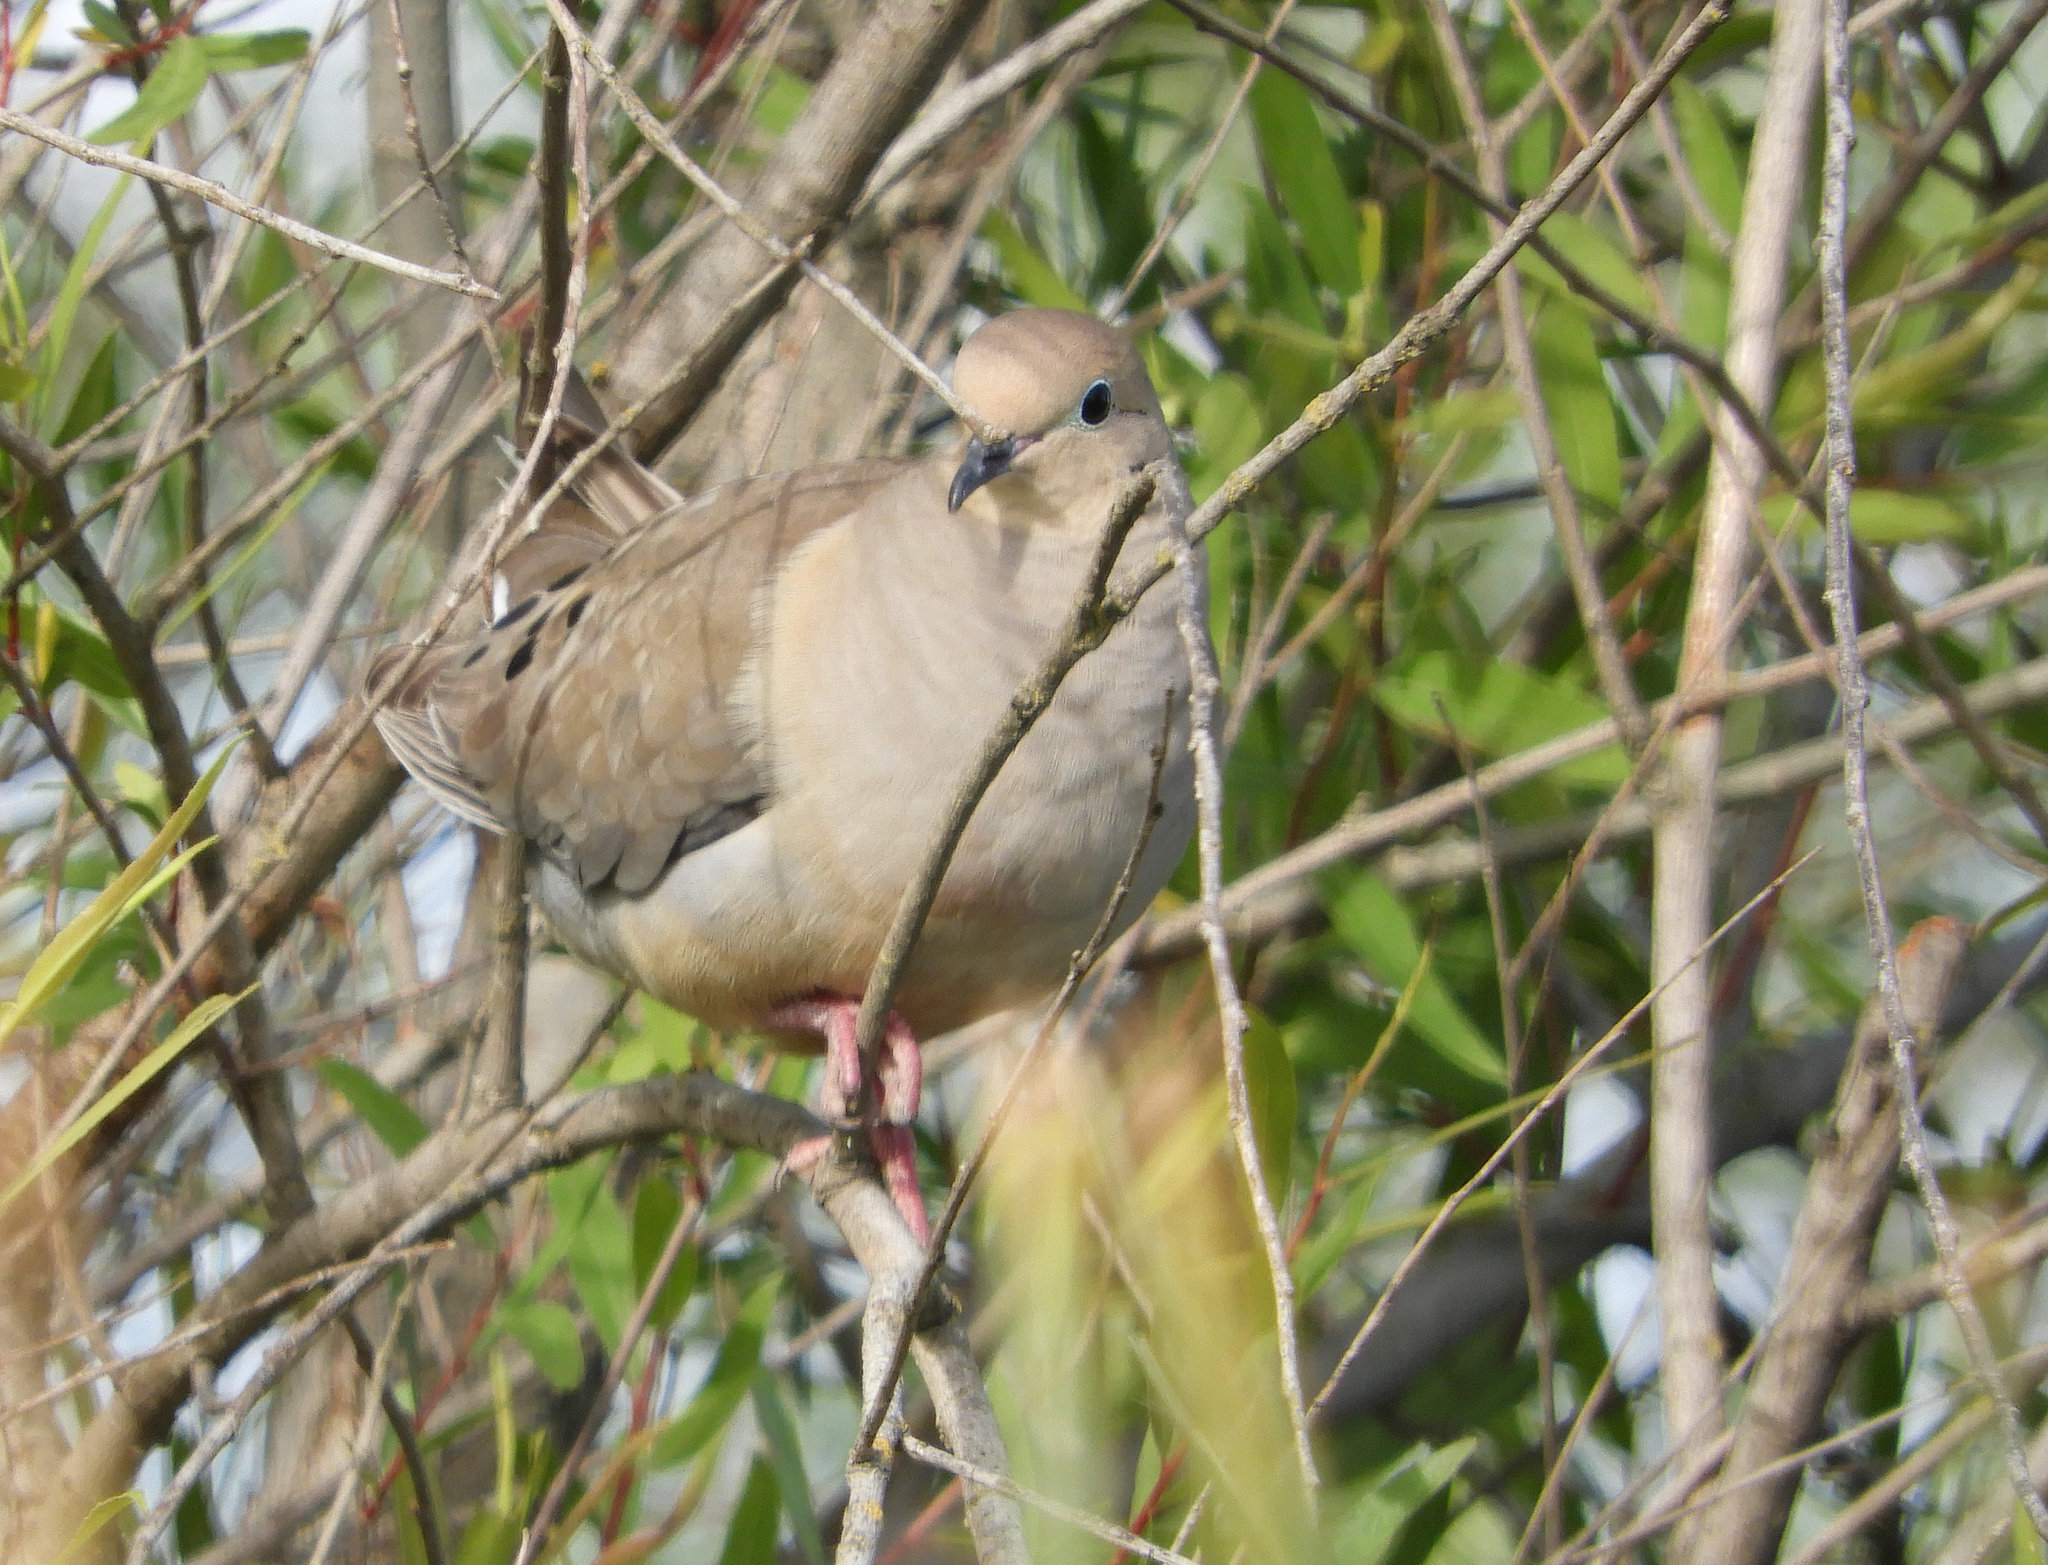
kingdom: Animalia
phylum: Chordata
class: Aves
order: Columbiformes
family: Columbidae
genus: Zenaida
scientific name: Zenaida macroura
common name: Mourning dove
